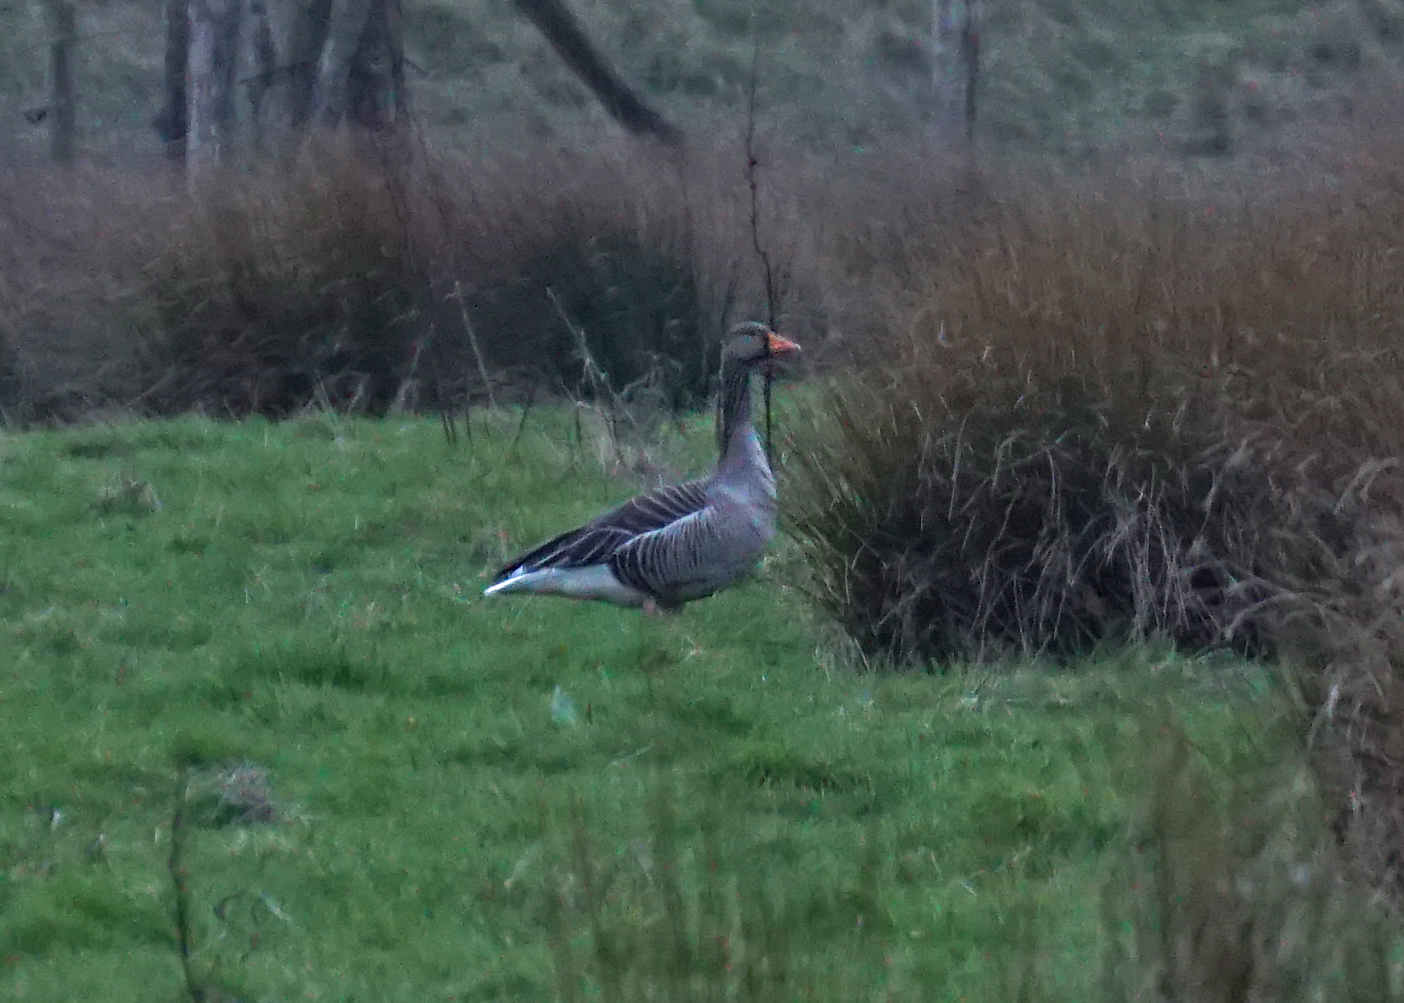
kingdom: Animalia
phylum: Chordata
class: Aves
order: Anseriformes
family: Anatidae
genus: Anser
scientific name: Anser anser
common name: Greylag goose
